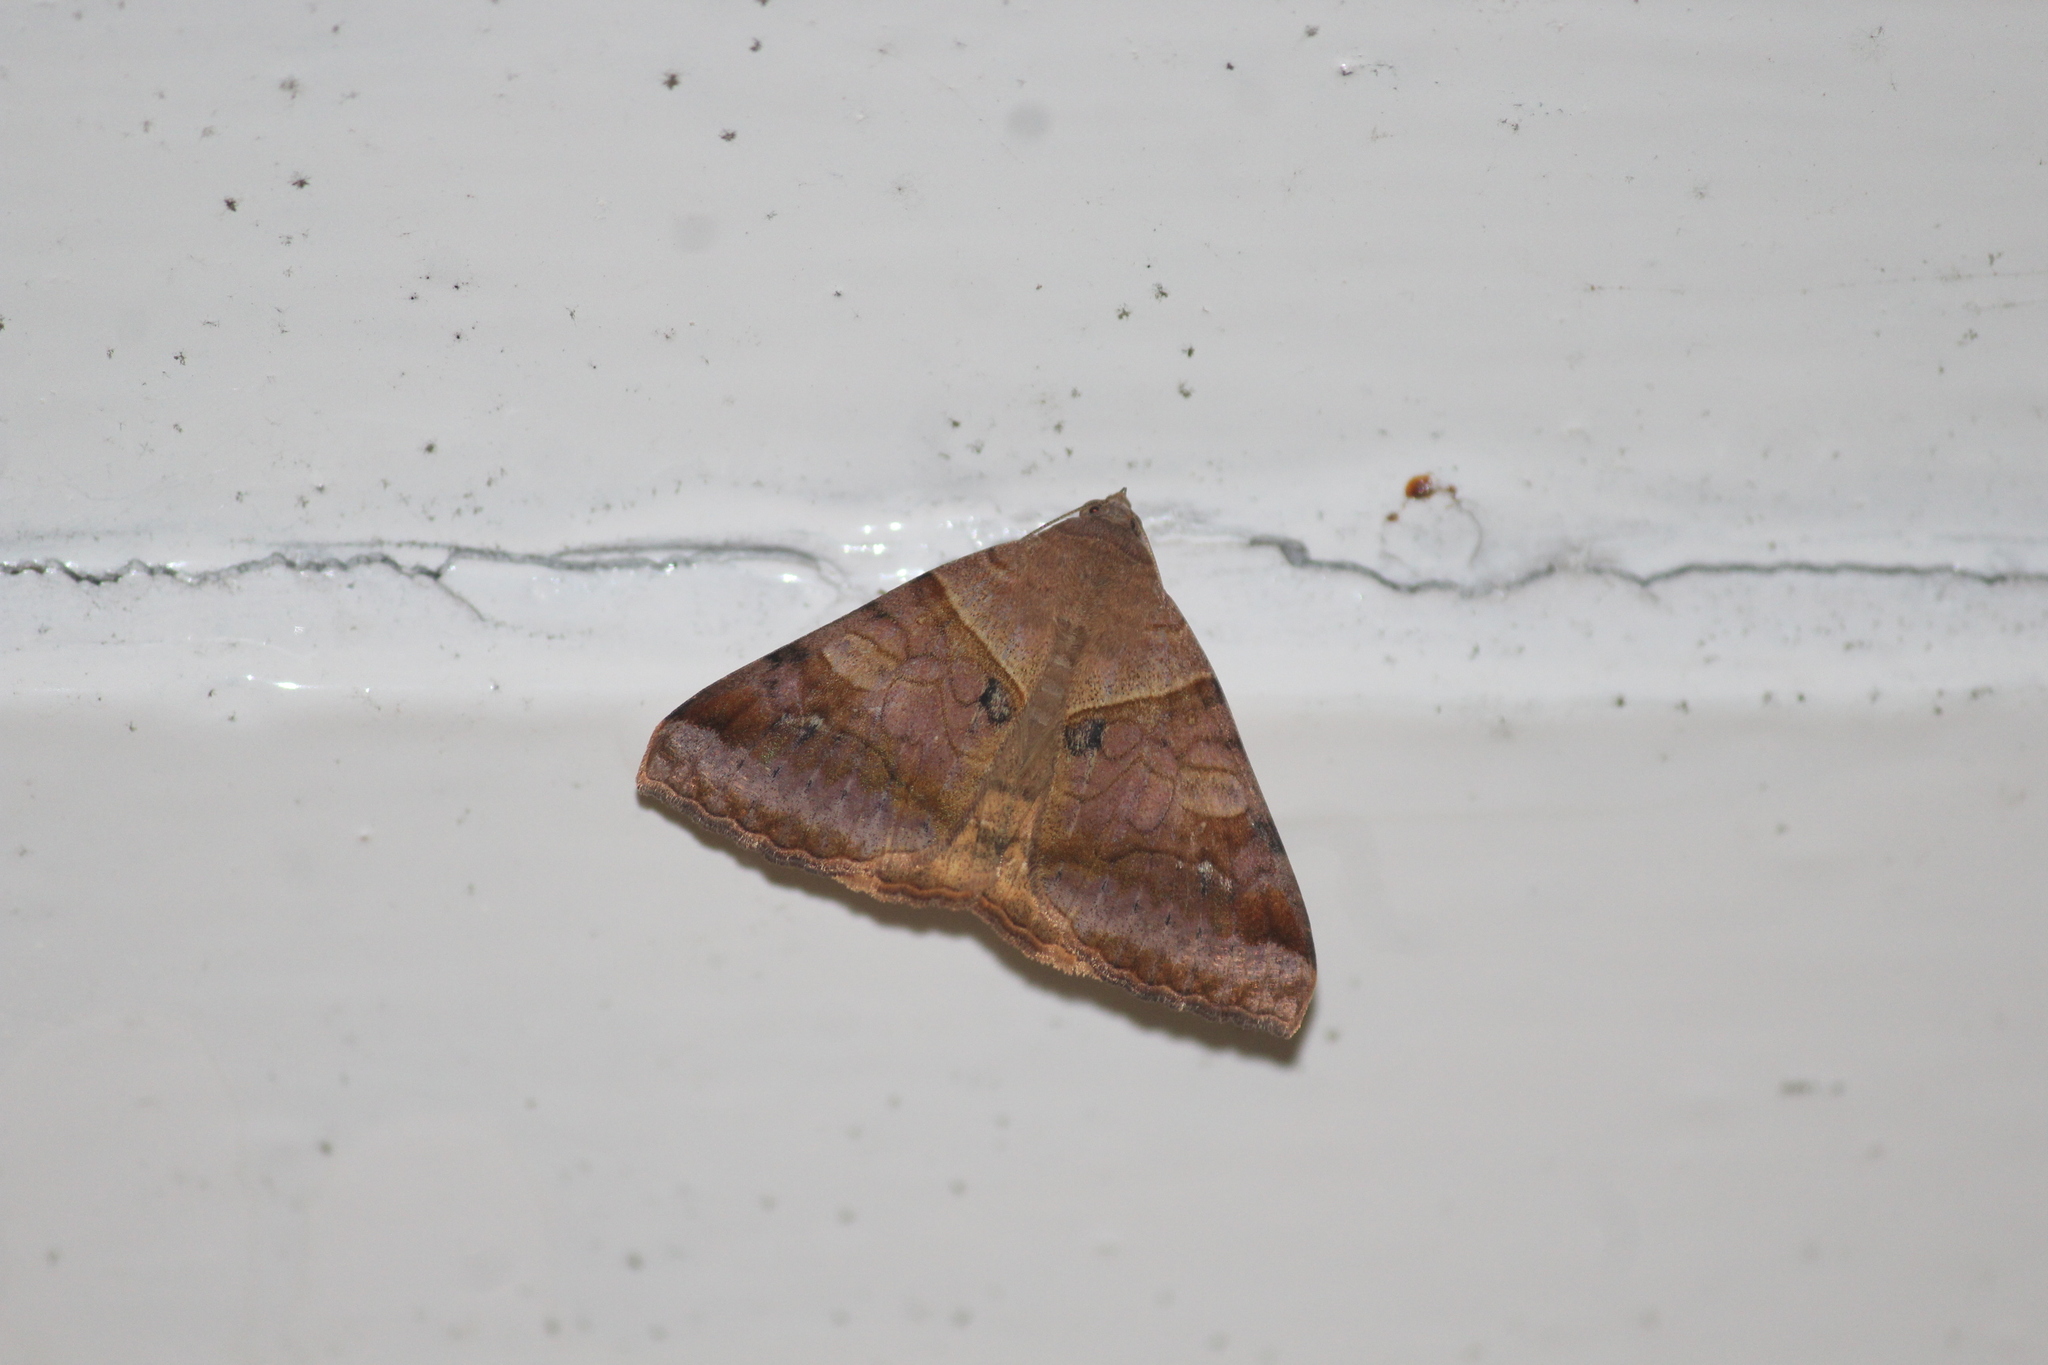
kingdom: Animalia
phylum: Arthropoda
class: Insecta
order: Lepidoptera
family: Erebidae
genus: Mocis
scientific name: Mocis undata
